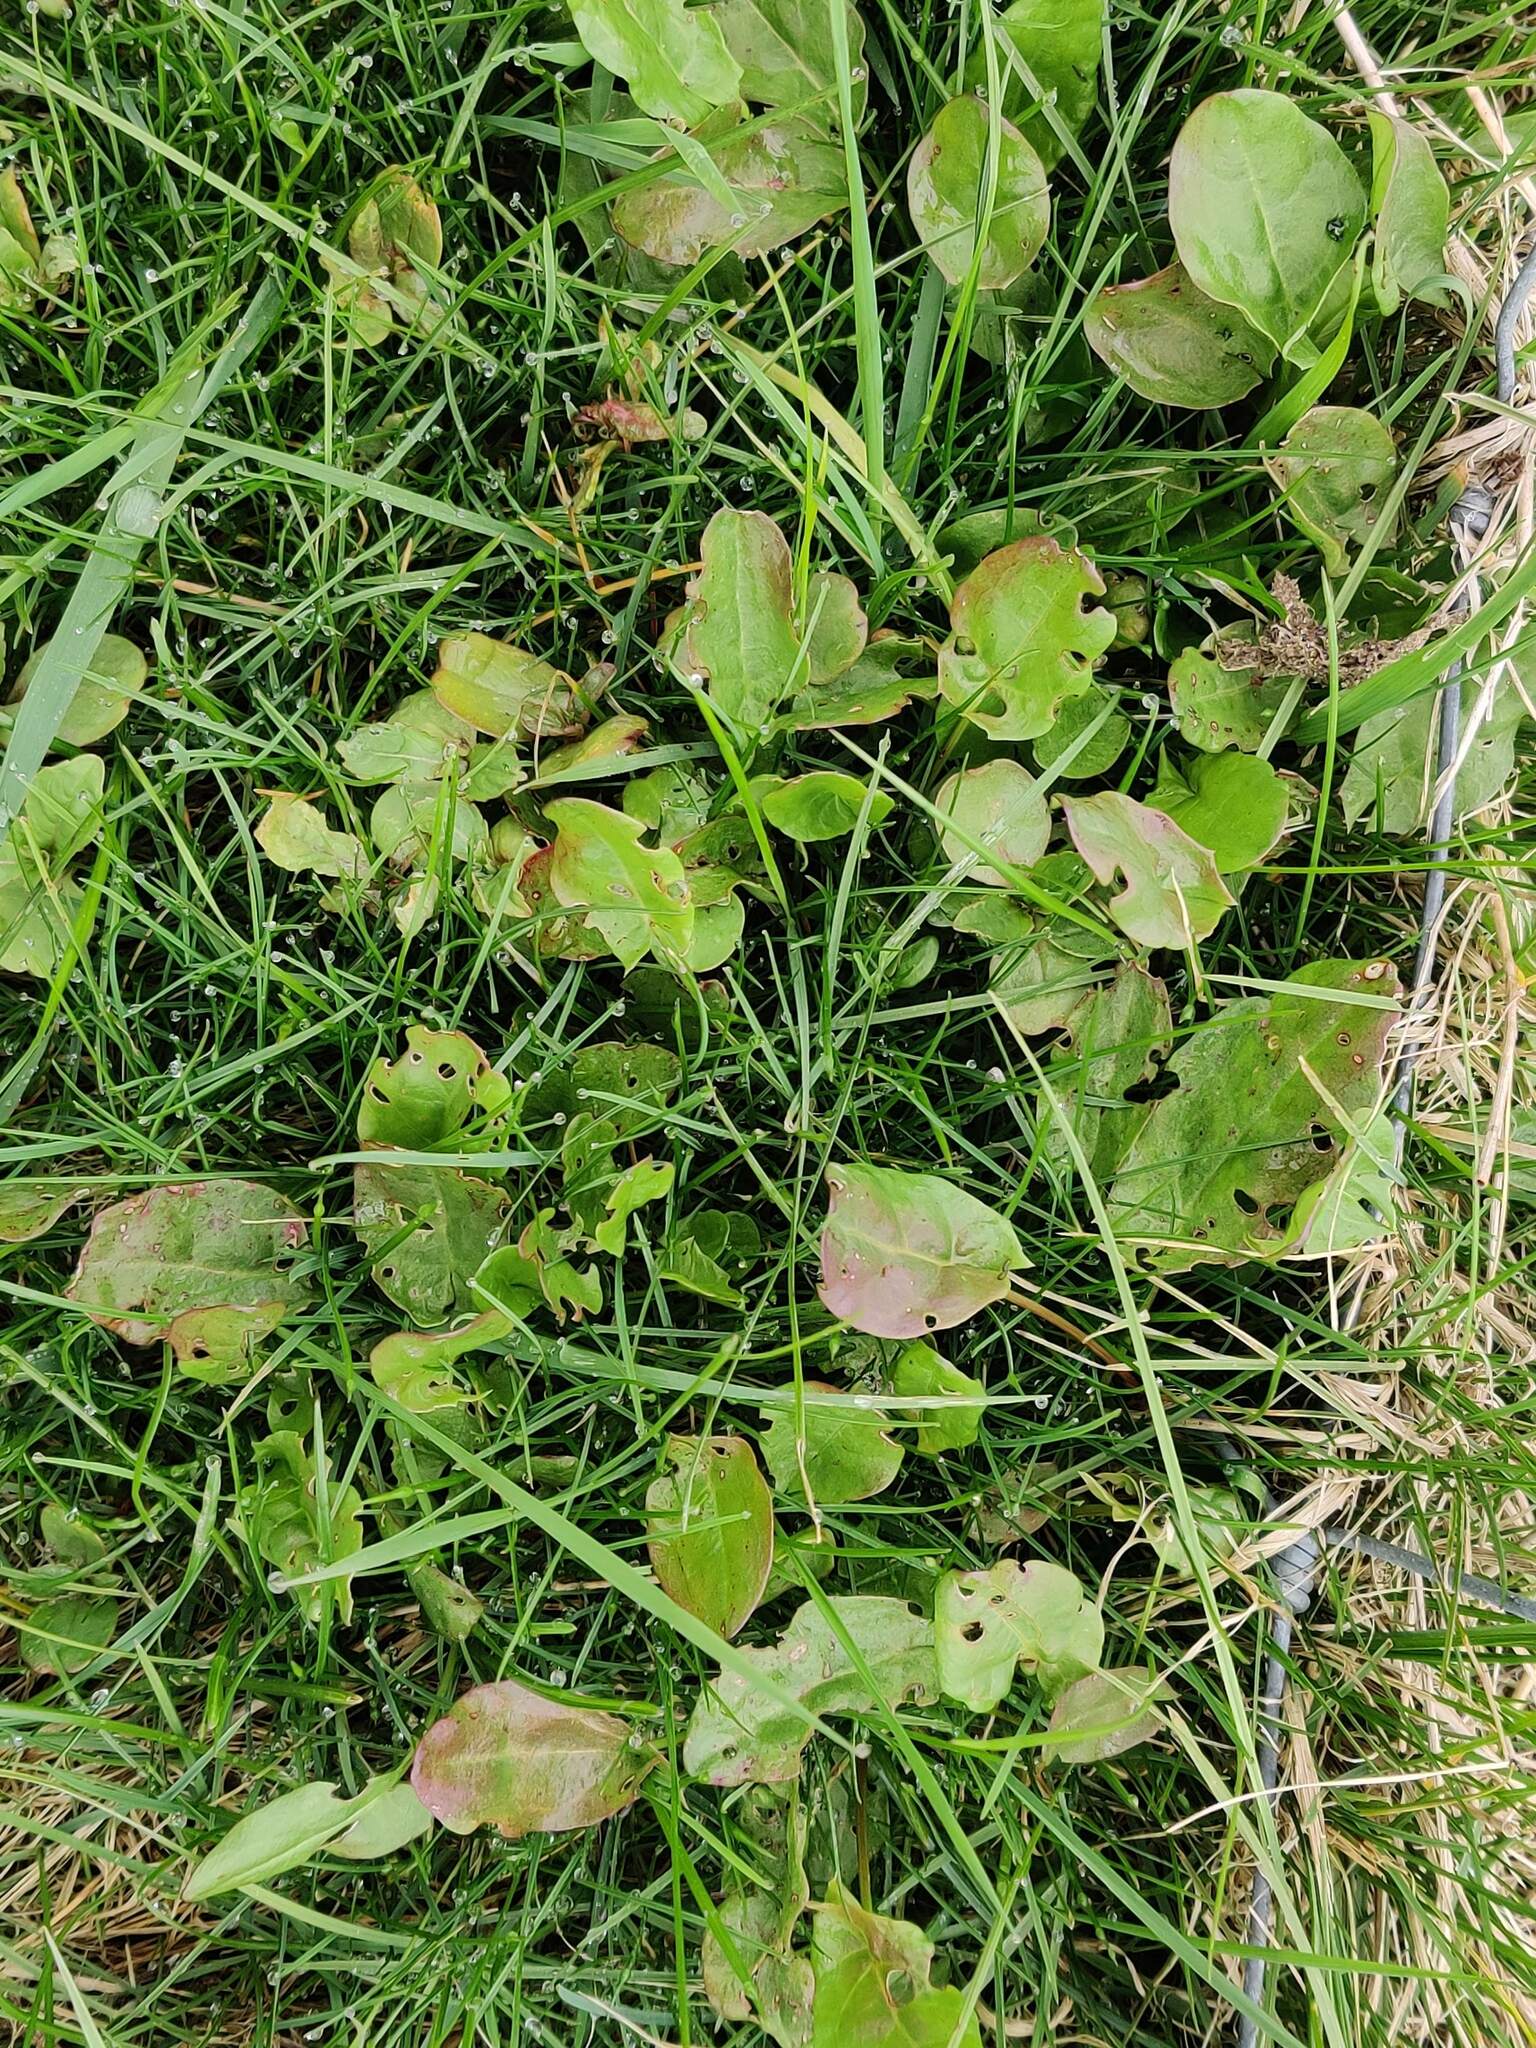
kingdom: Plantae
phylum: Tracheophyta
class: Magnoliopsida
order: Caryophyllales
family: Polygonaceae
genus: Rumex
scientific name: Rumex acetosa
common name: Garden sorrel
